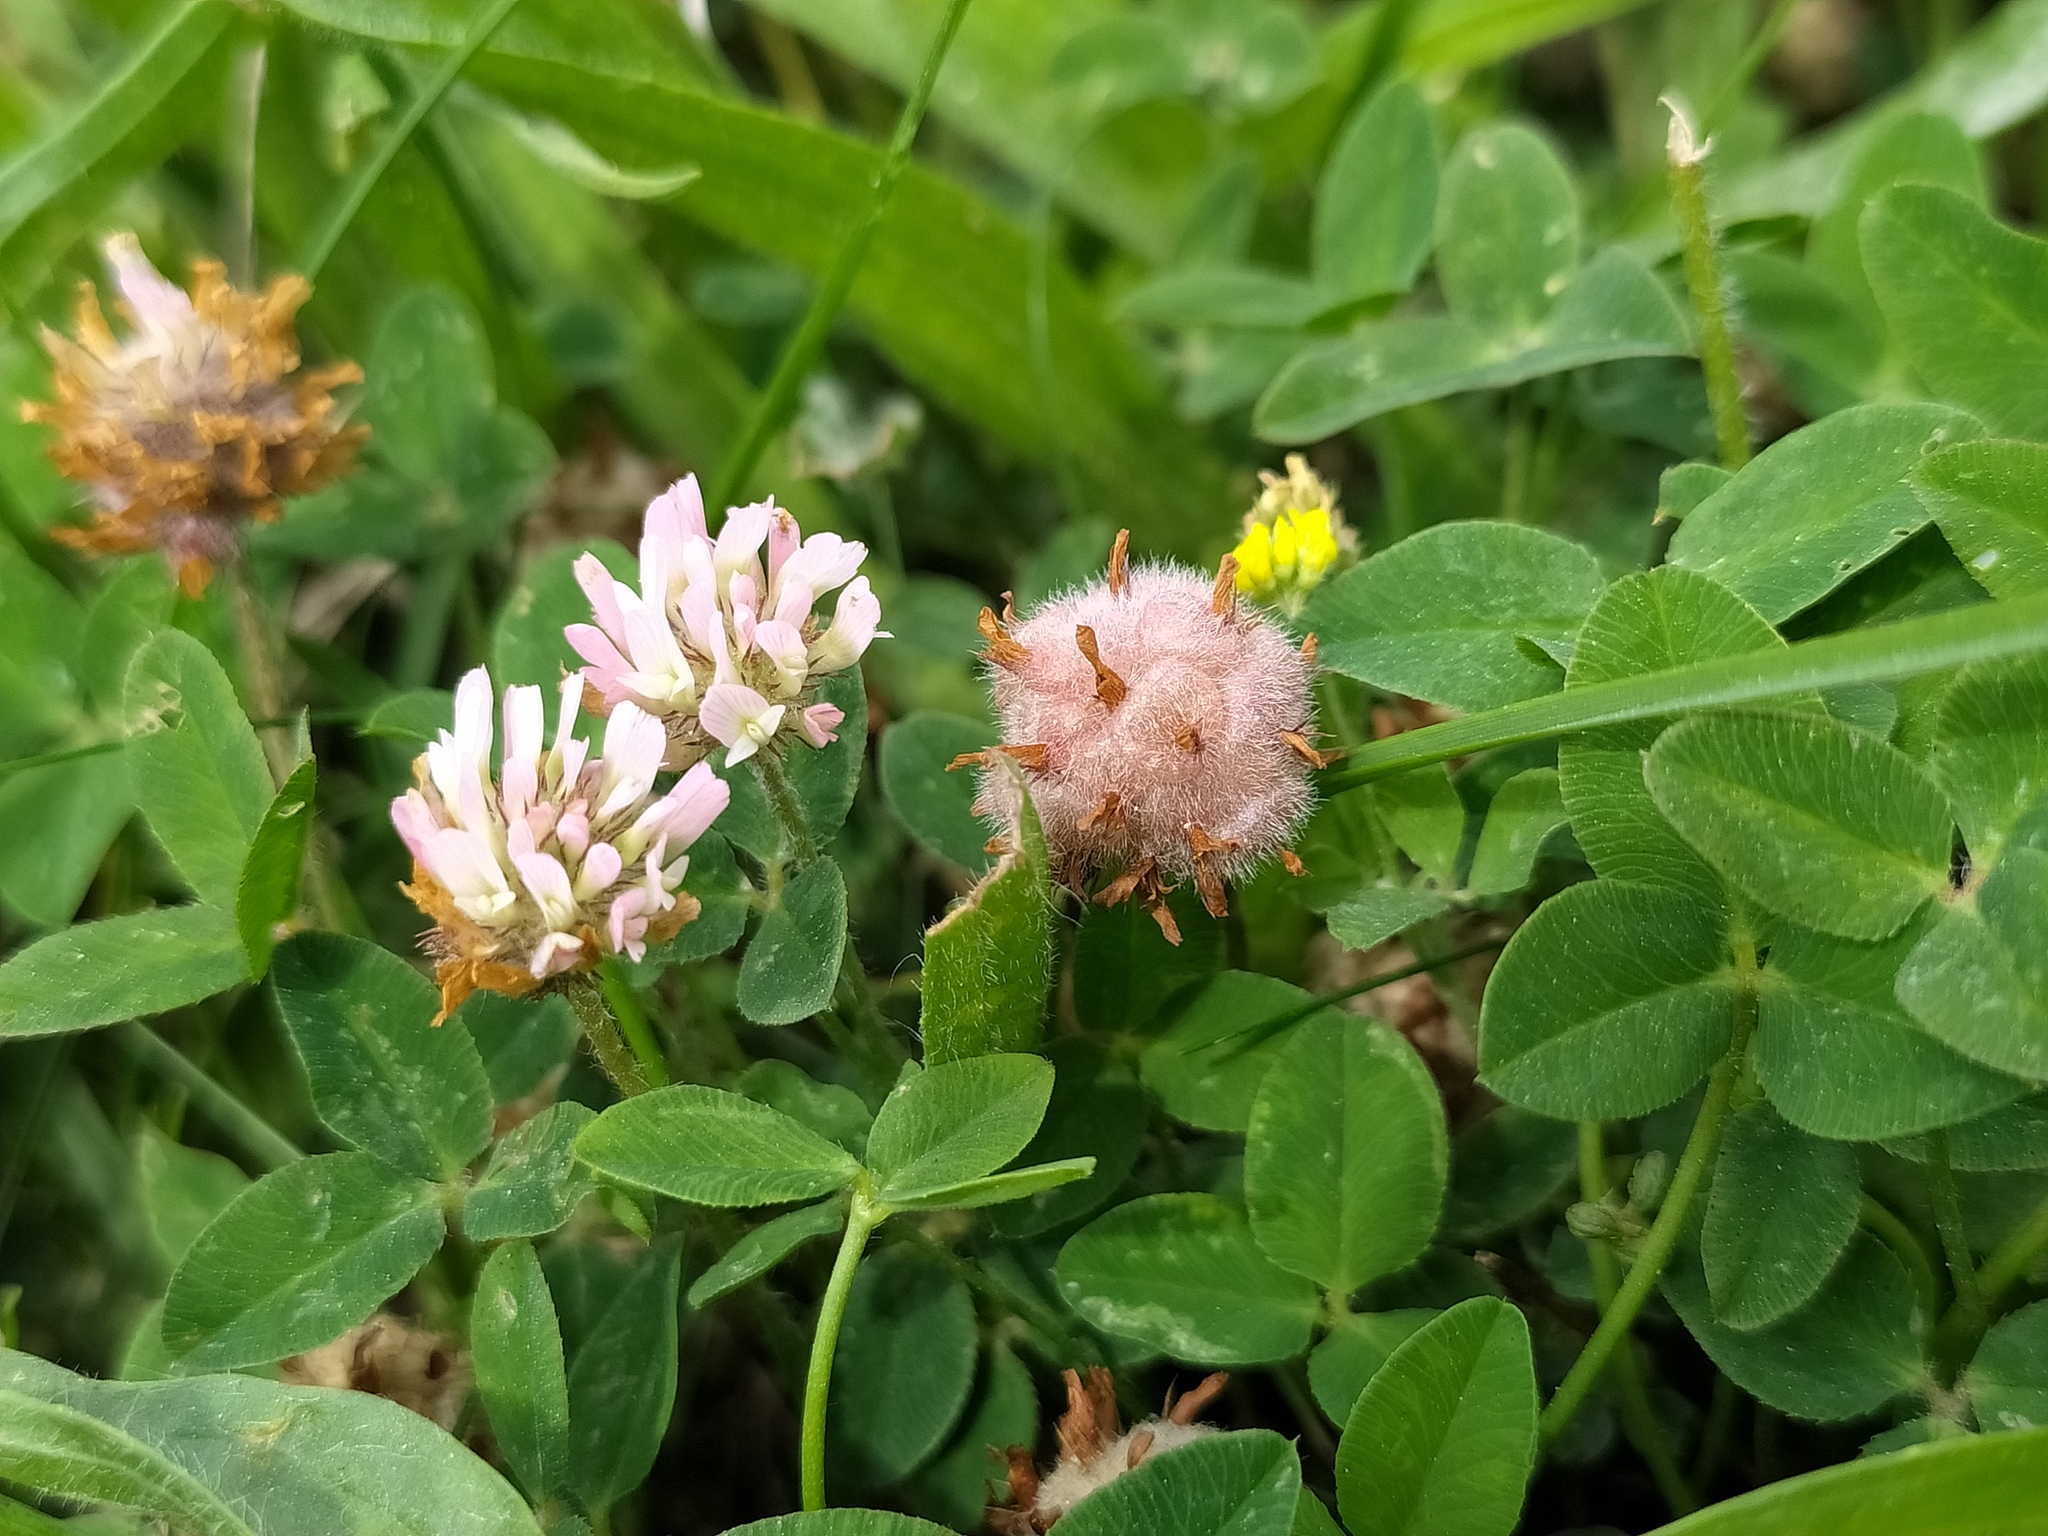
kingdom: Plantae
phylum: Tracheophyta
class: Magnoliopsida
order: Fabales
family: Fabaceae
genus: Trifolium
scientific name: Trifolium fragiferum
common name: Strawberry clover
